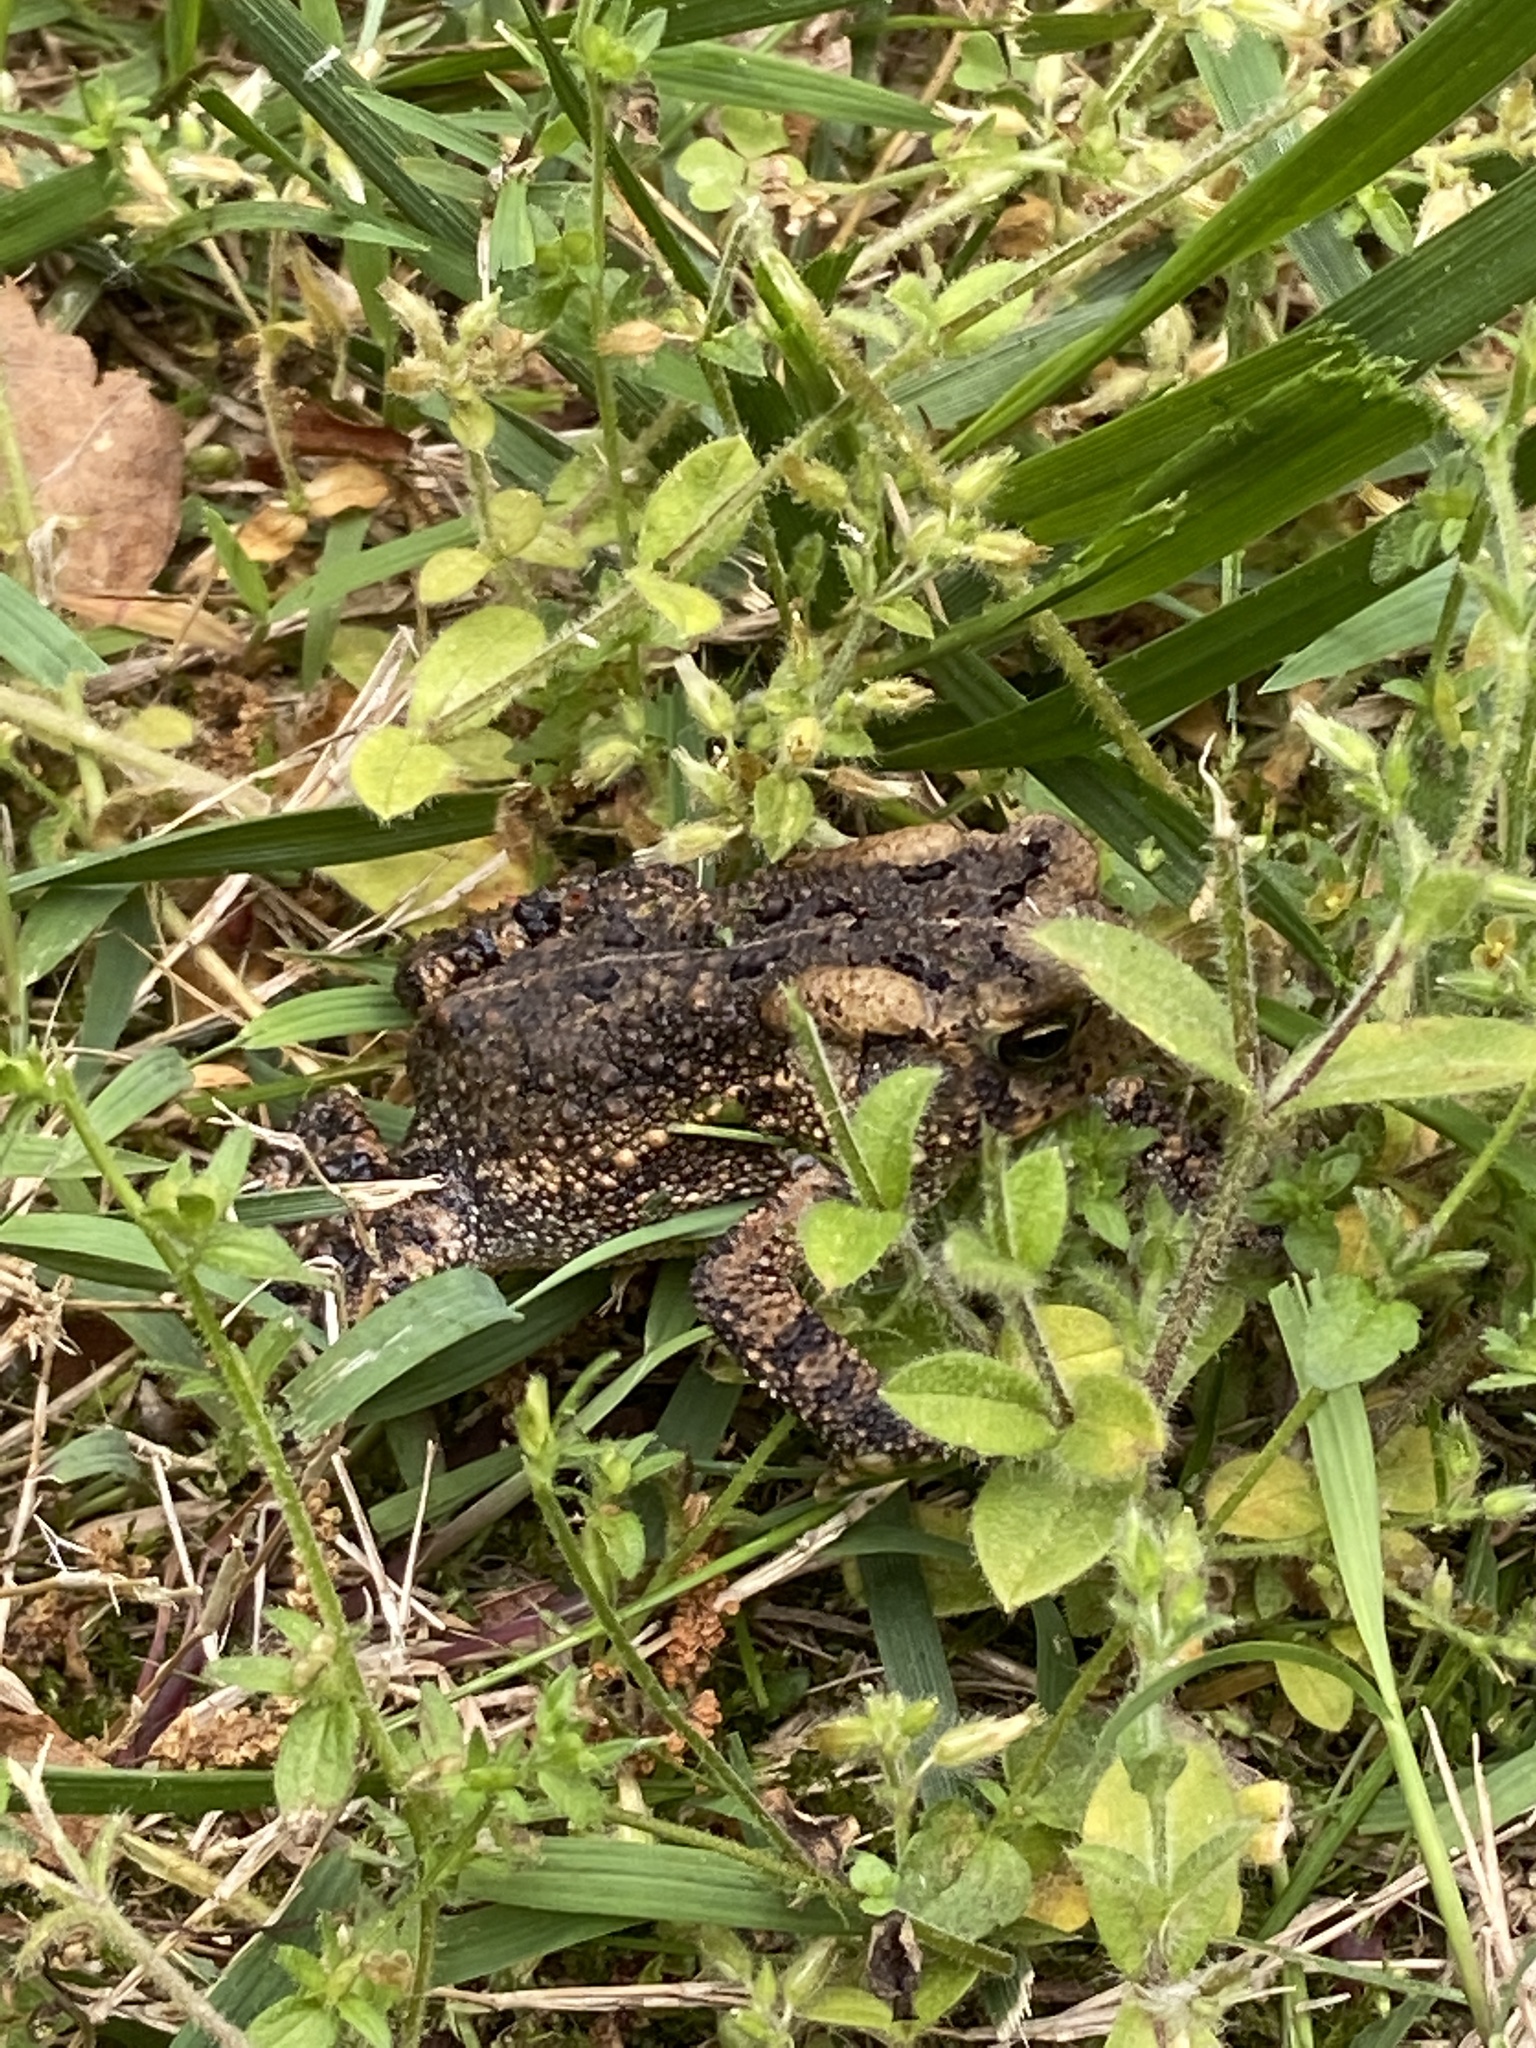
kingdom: Animalia
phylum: Chordata
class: Amphibia
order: Anura
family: Bufonidae
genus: Anaxyrus
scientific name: Anaxyrus americanus
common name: American toad
